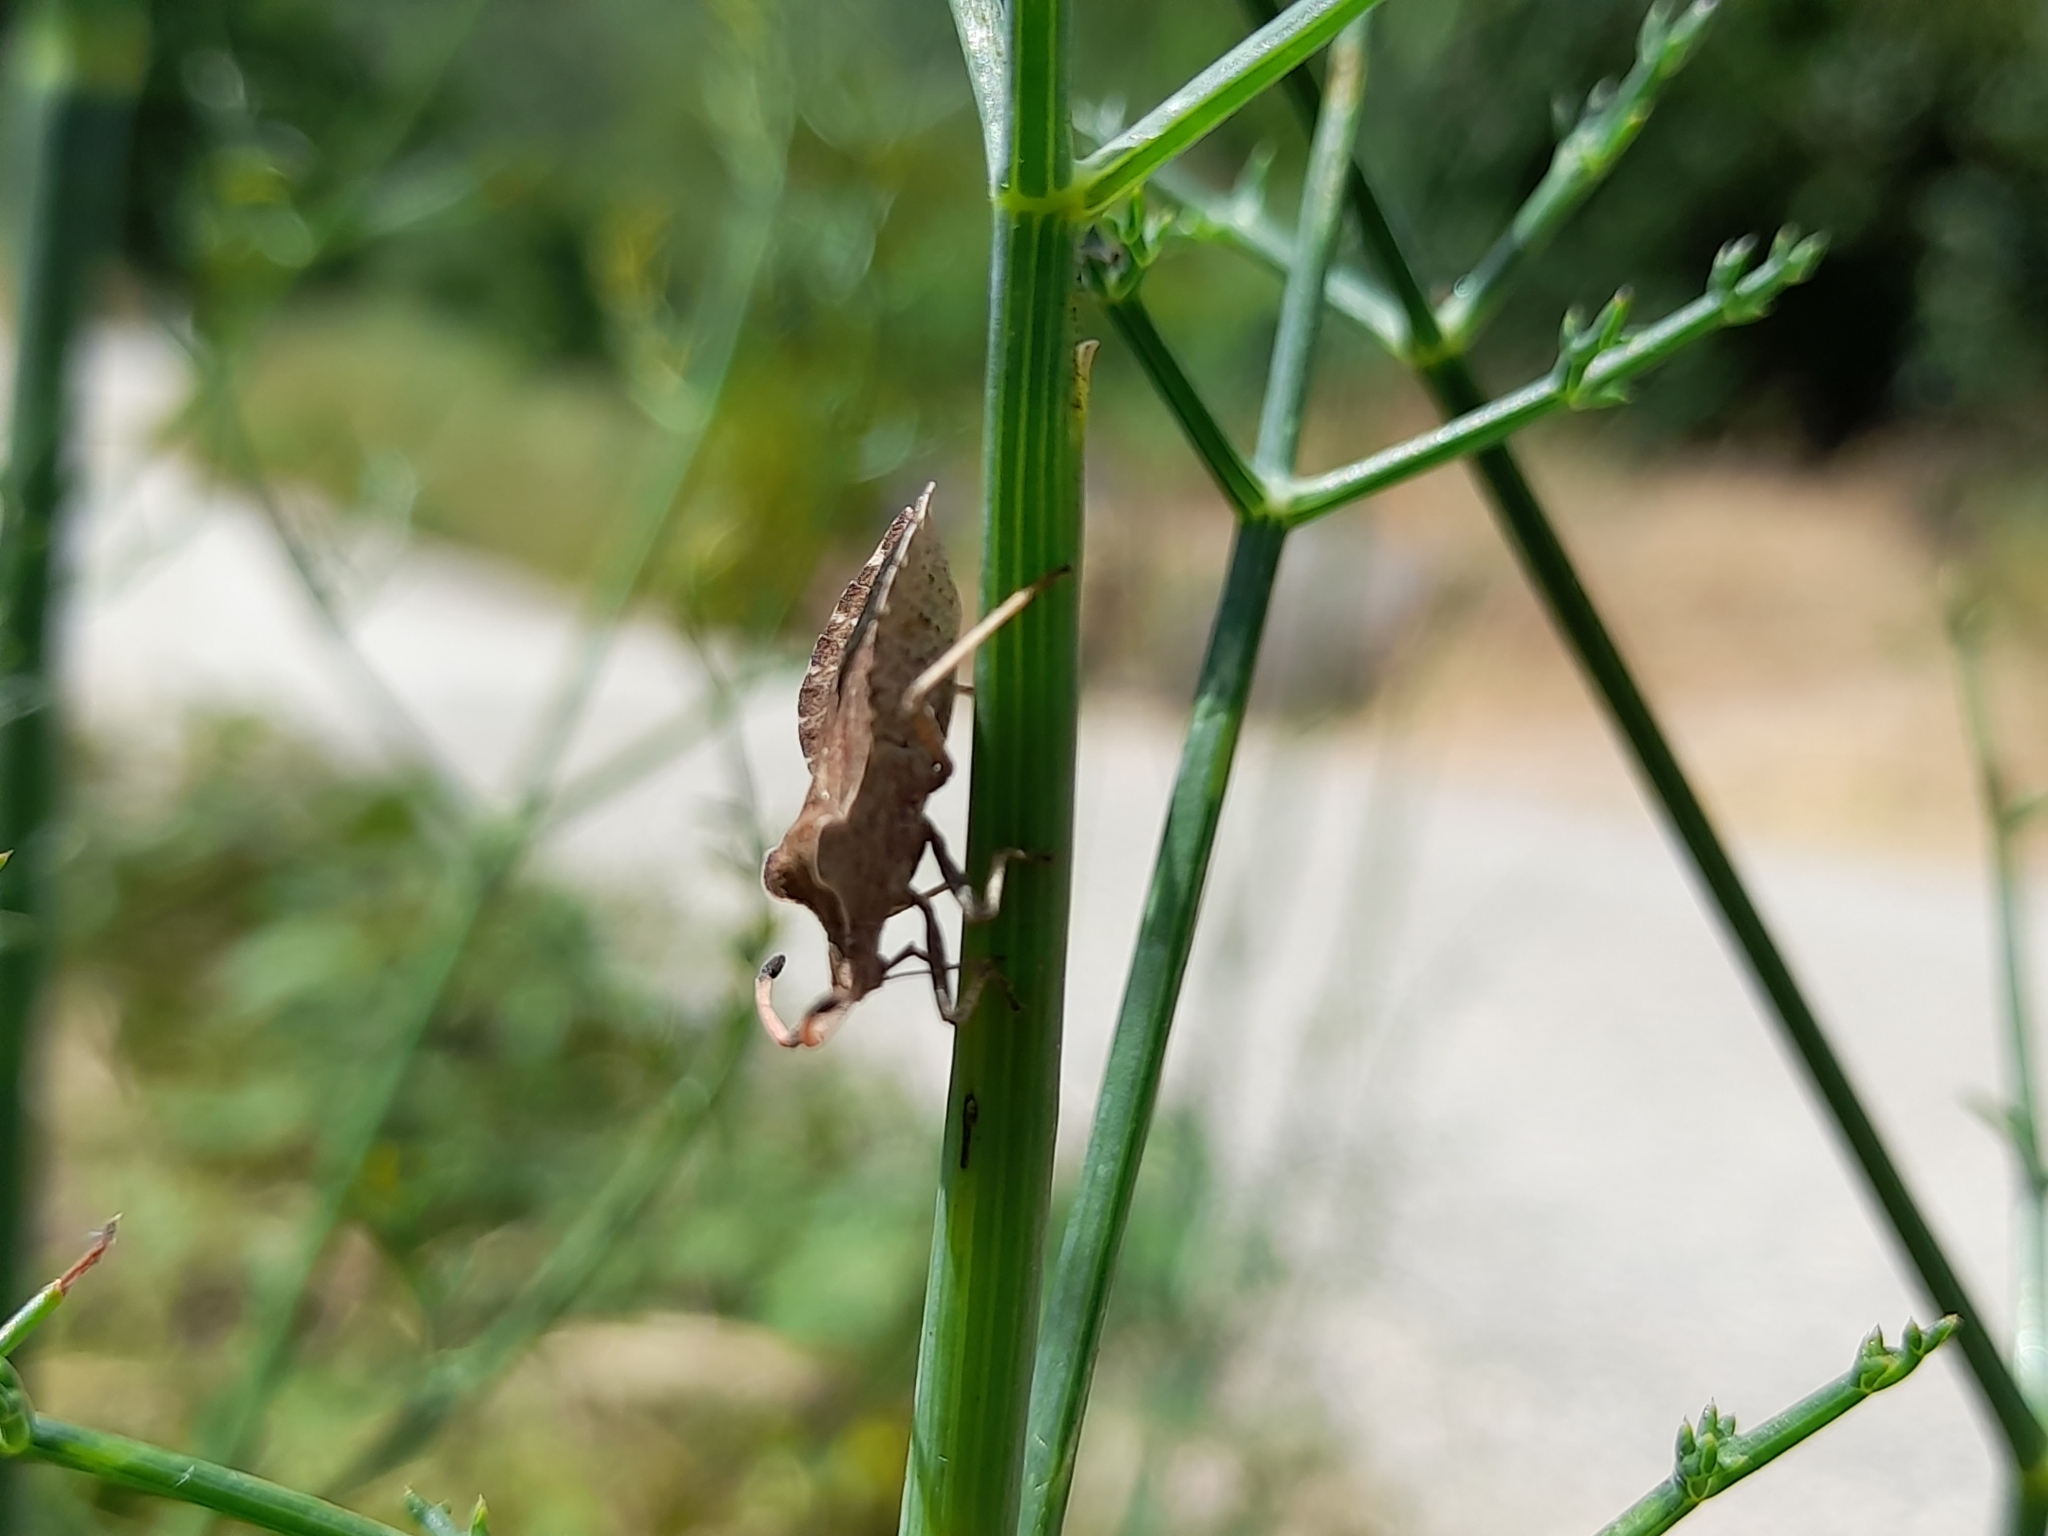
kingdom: Animalia
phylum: Arthropoda
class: Insecta
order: Hemiptera
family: Coreidae
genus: Enoplops
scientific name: Enoplops scapha
